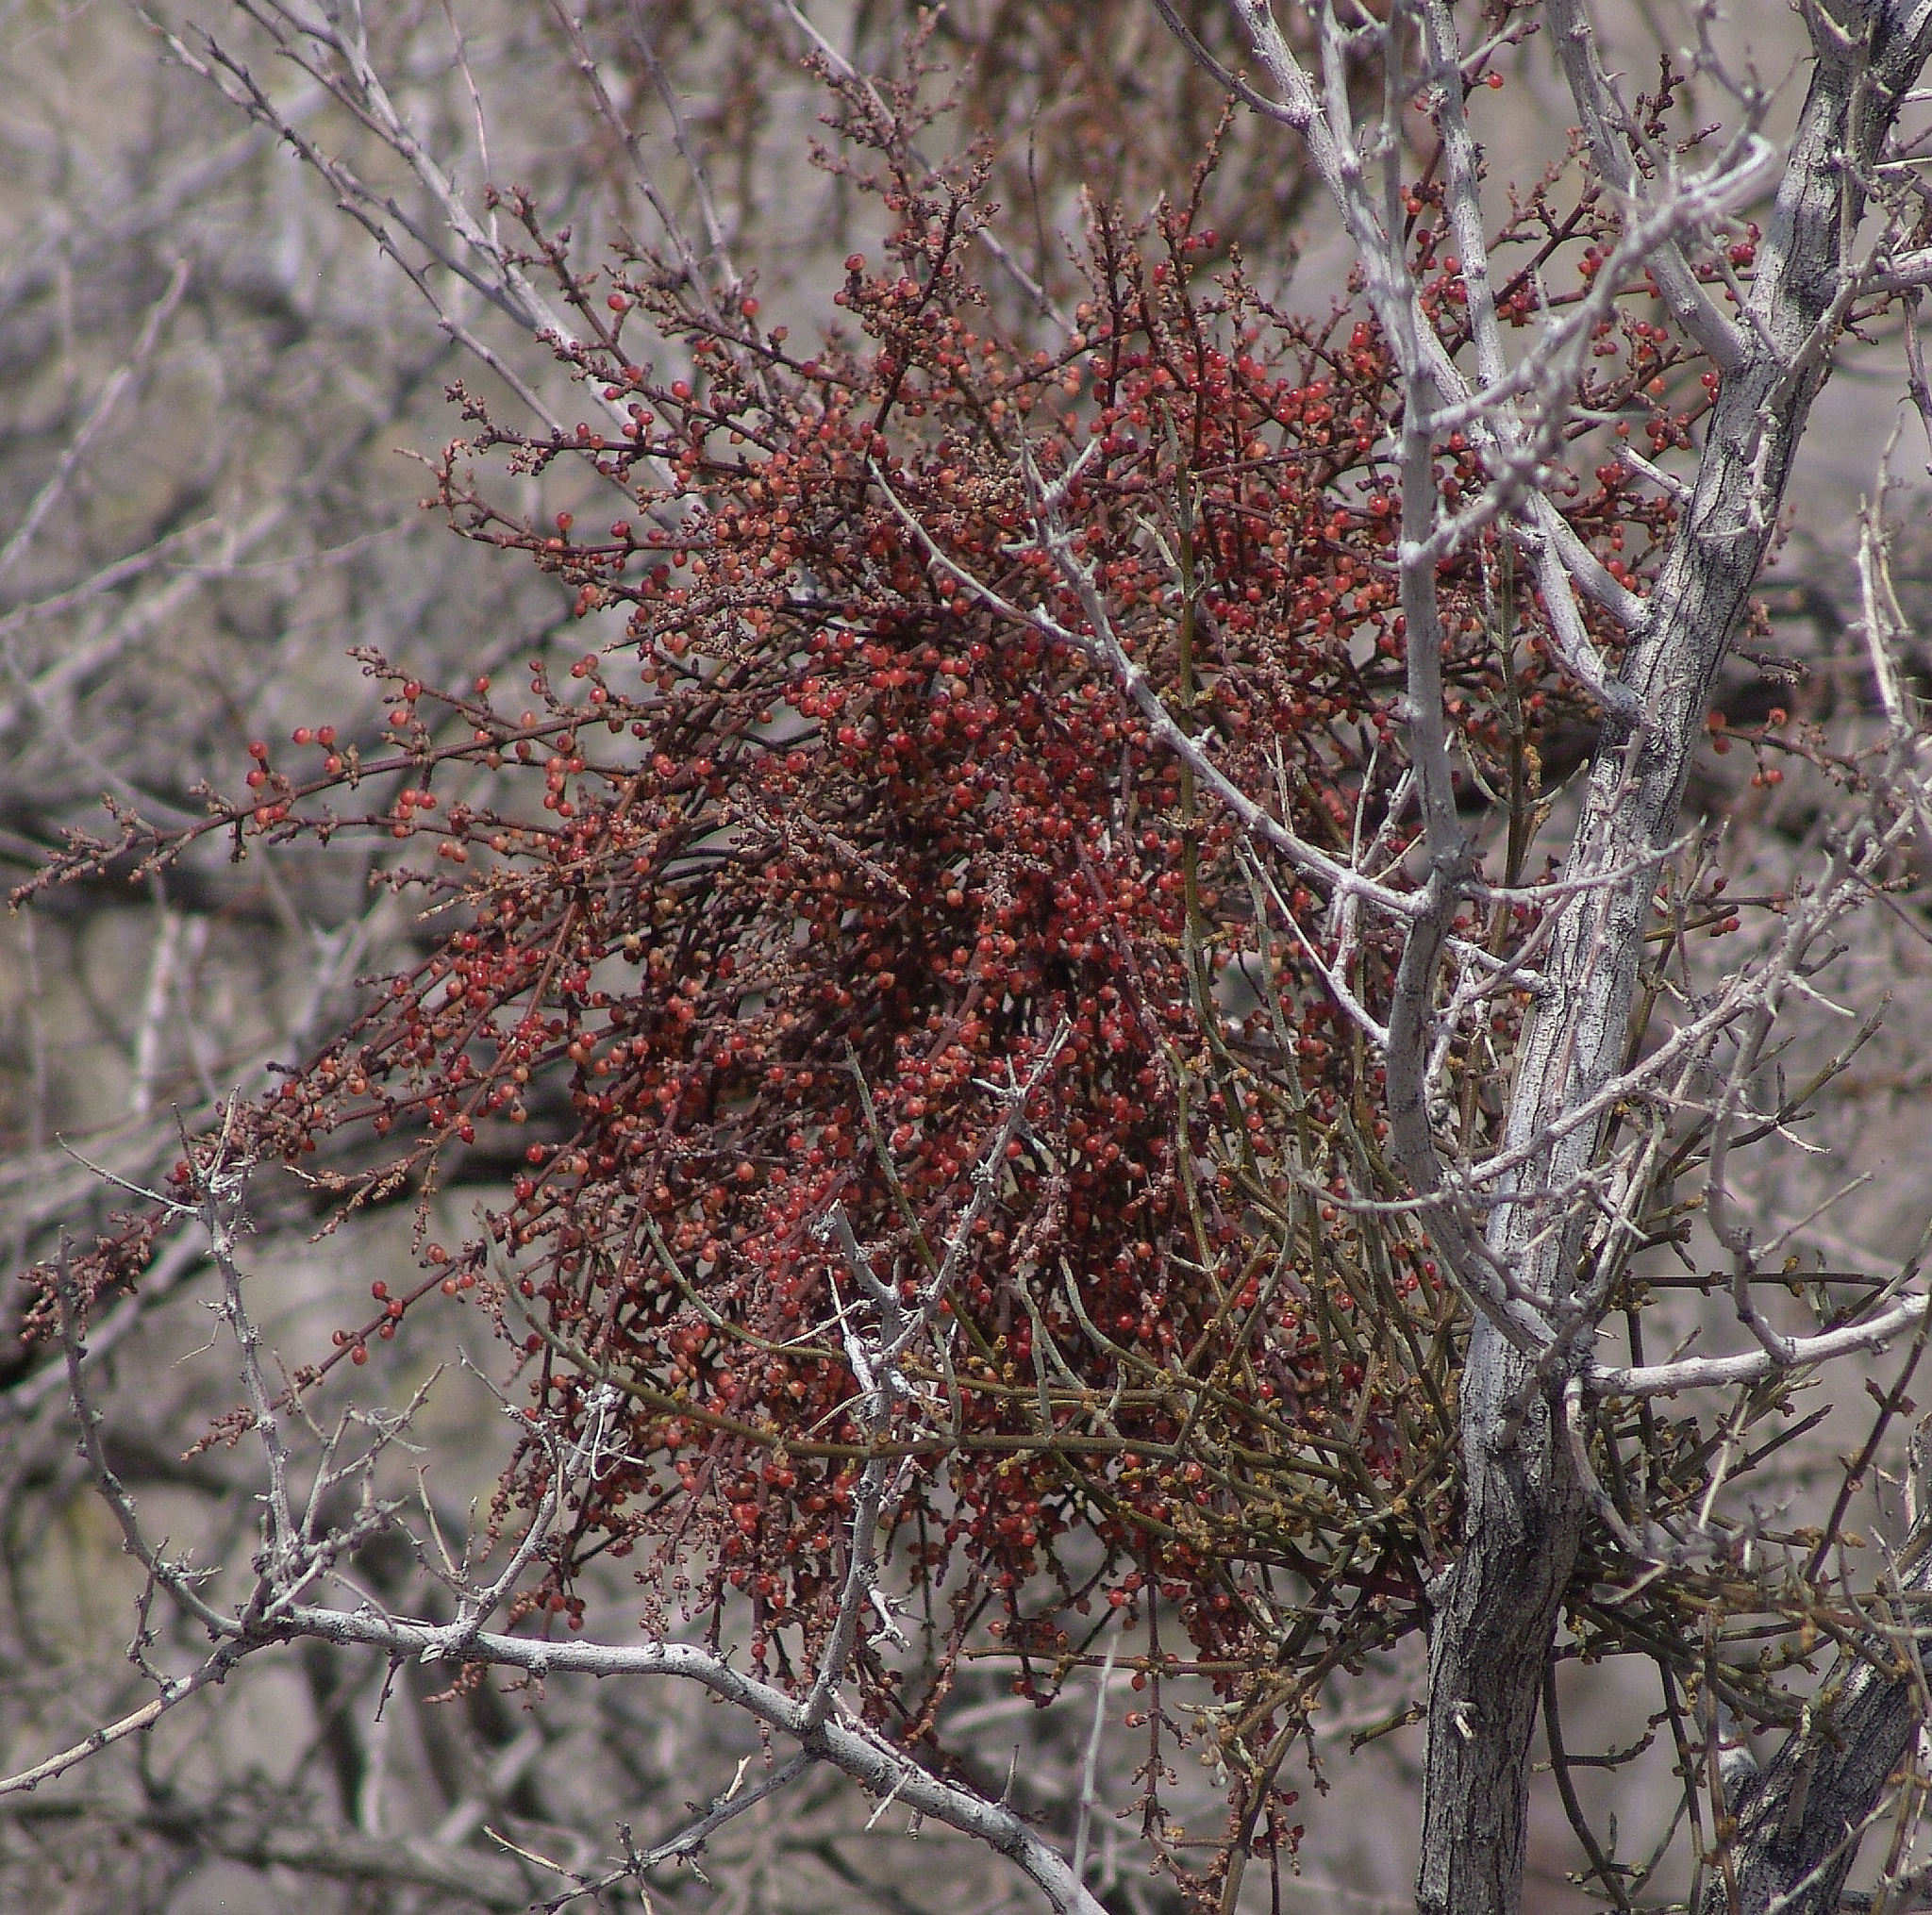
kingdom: Plantae
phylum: Tracheophyta
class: Magnoliopsida
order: Santalales
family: Viscaceae
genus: Phoradendron
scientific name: Phoradendron californicum
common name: Acacia mistletoe
